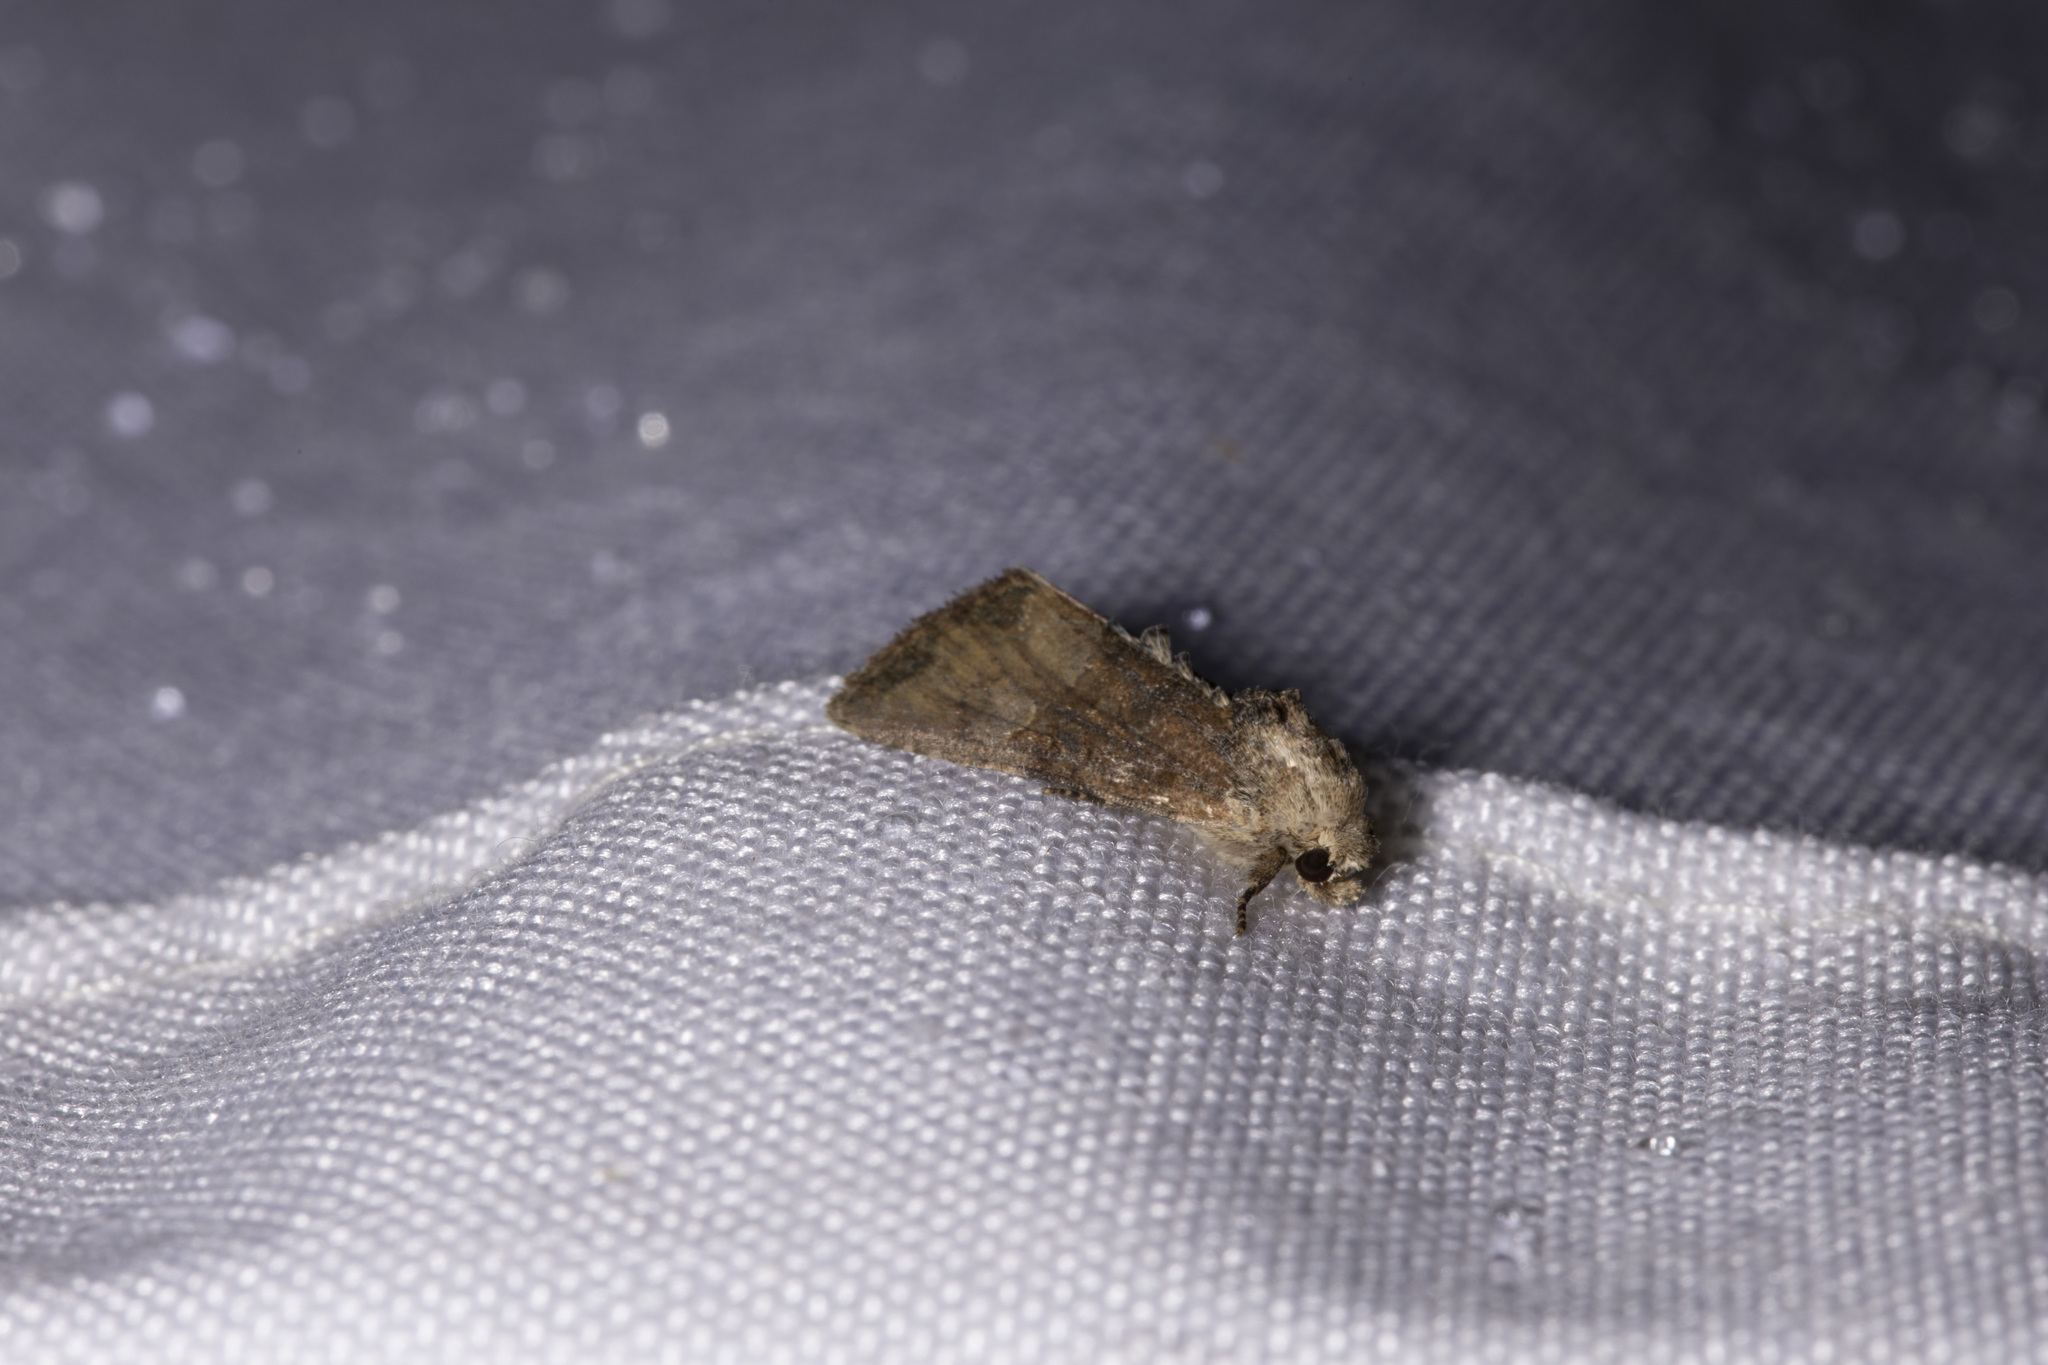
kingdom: Animalia
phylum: Arthropoda
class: Insecta
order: Lepidoptera
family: Noctuidae
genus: Mesoligia
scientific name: Mesoligia furuncula
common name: Cloaked minor
